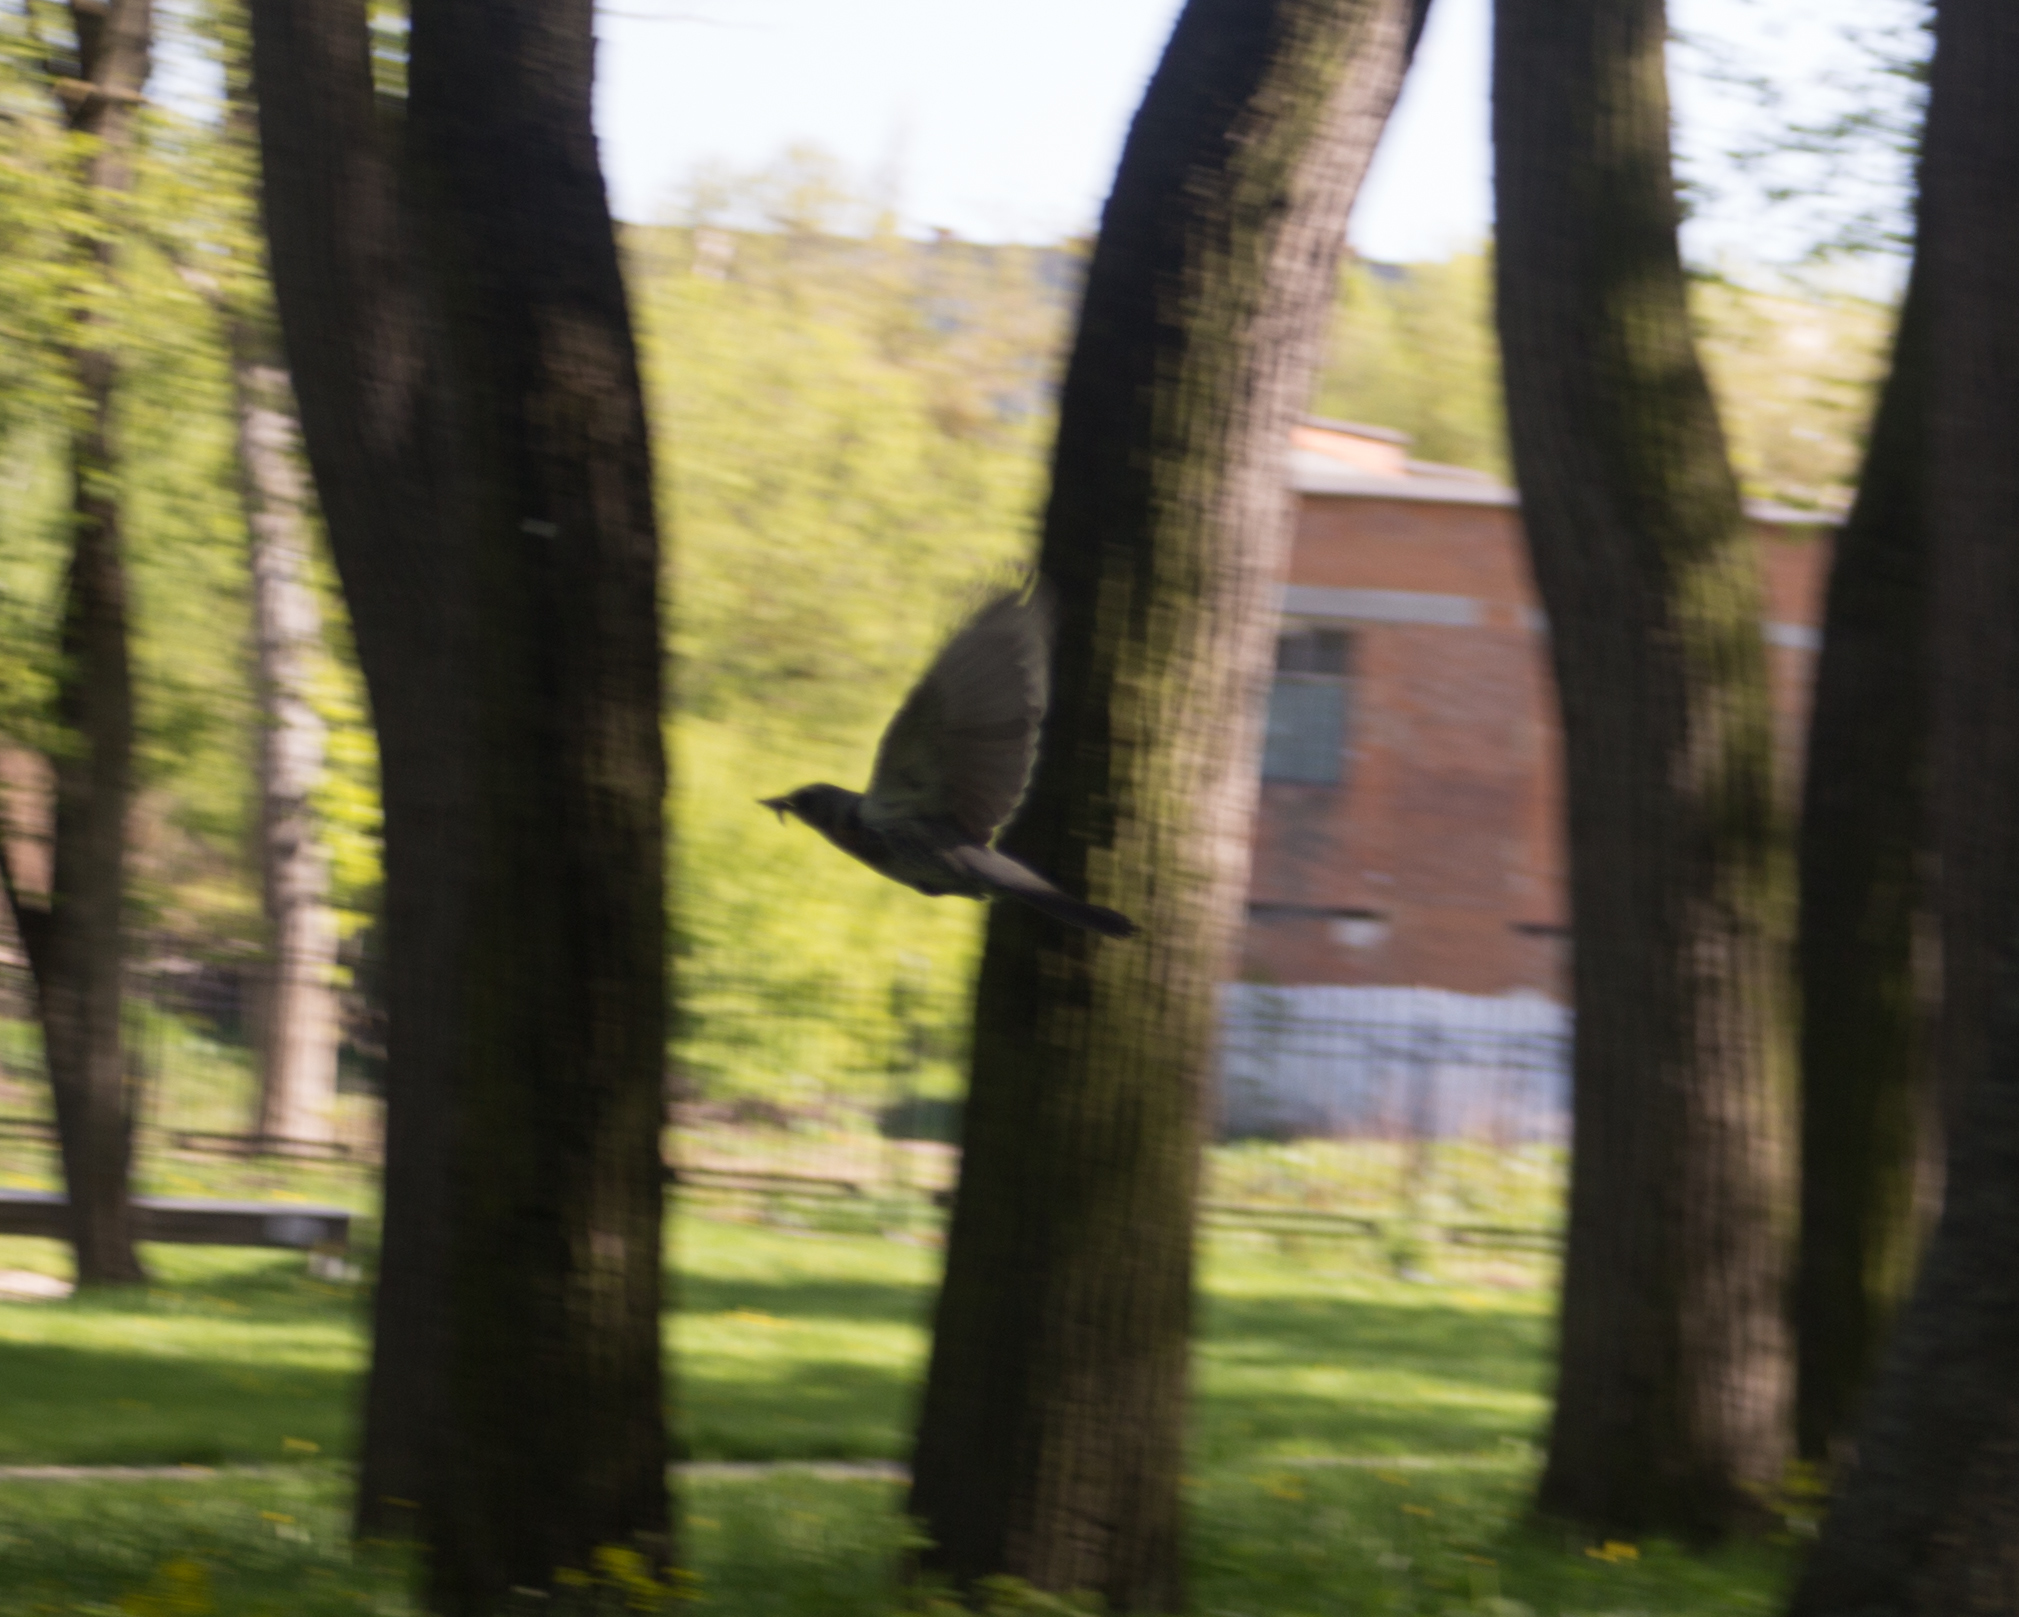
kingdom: Animalia
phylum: Chordata
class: Aves
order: Passeriformes
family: Turdidae
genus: Turdus
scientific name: Turdus pilaris
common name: Fieldfare
